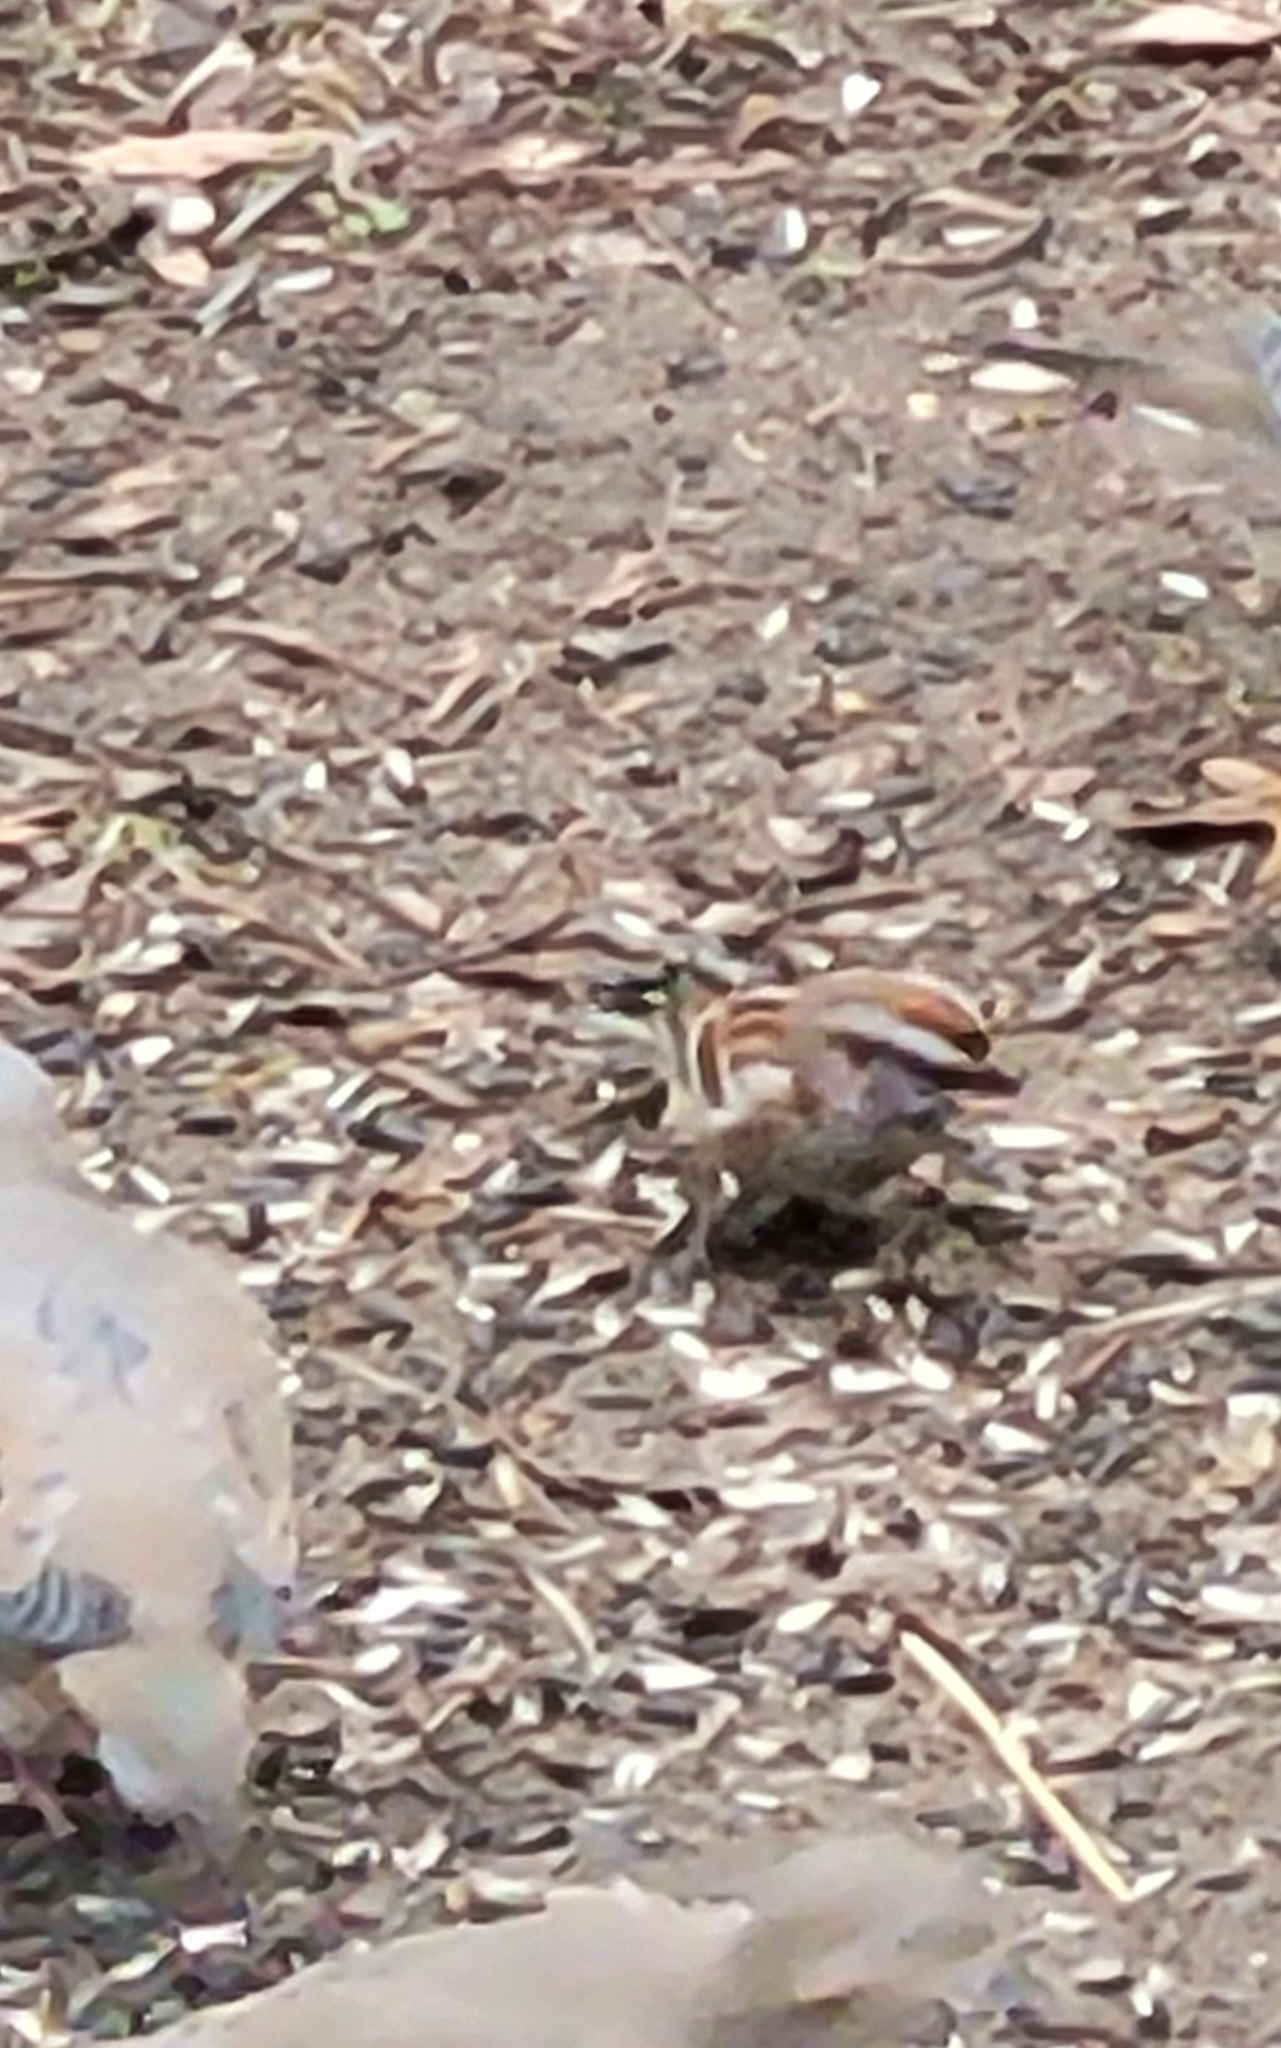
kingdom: Animalia
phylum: Chordata
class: Aves
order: Passeriformes
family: Passerellidae
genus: Spizelloides
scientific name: Spizelloides arborea
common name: American tree sparrow
